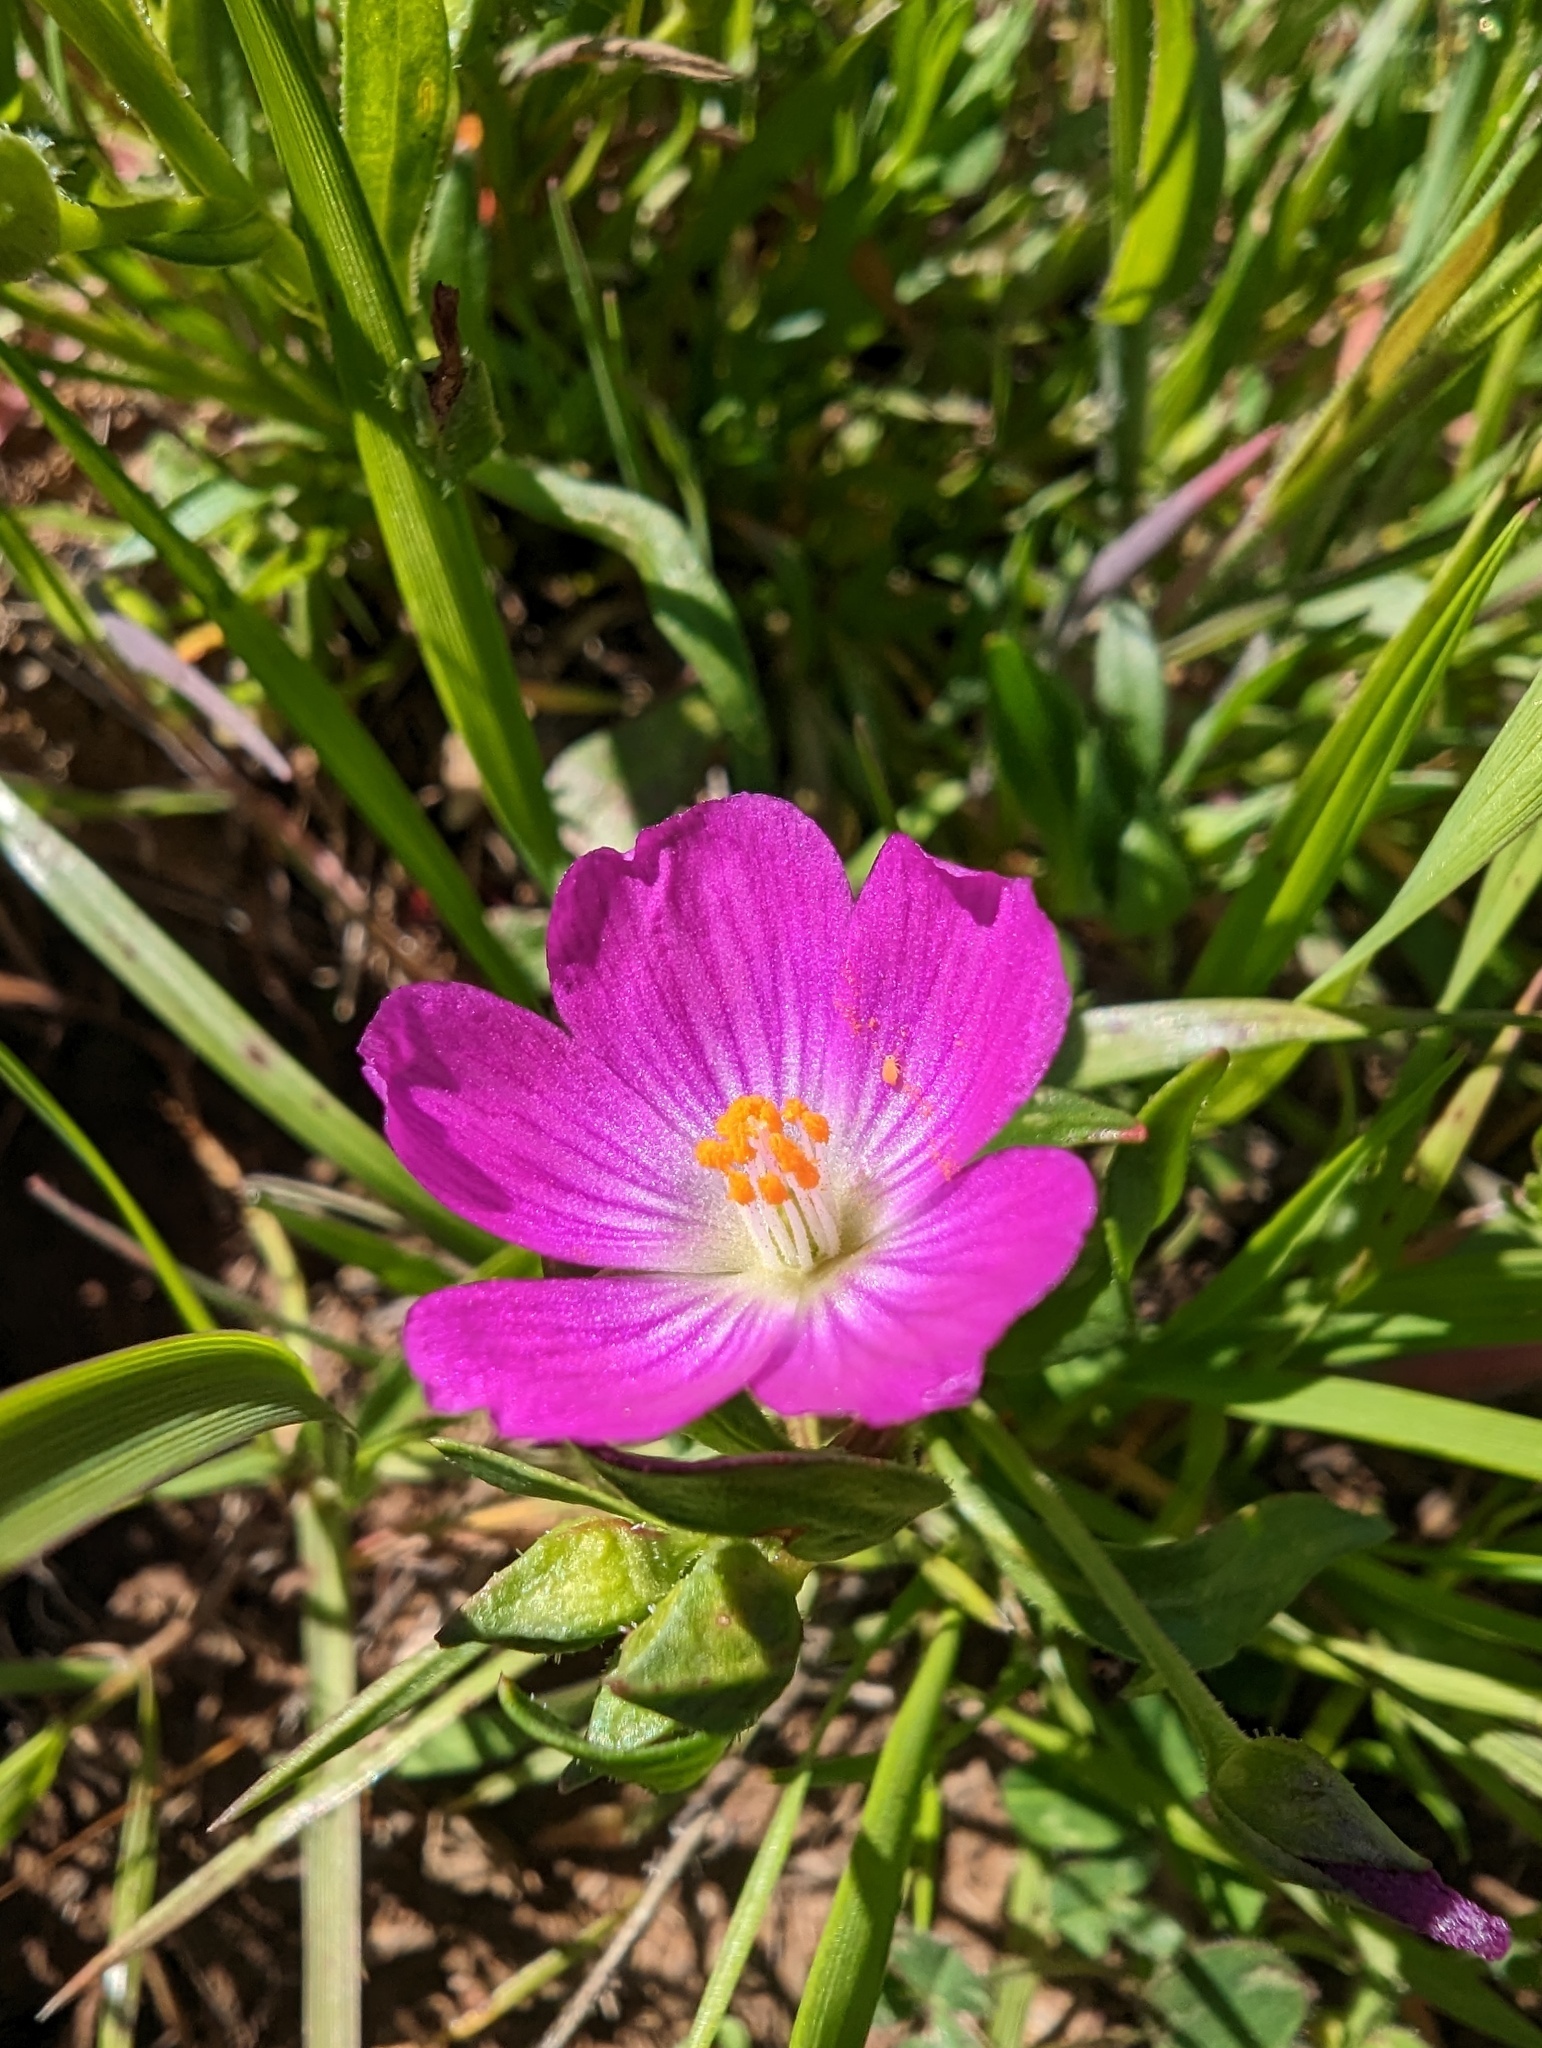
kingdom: Plantae
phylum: Tracheophyta
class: Magnoliopsida
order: Caryophyllales
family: Montiaceae
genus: Calandrinia
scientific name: Calandrinia menziesii
